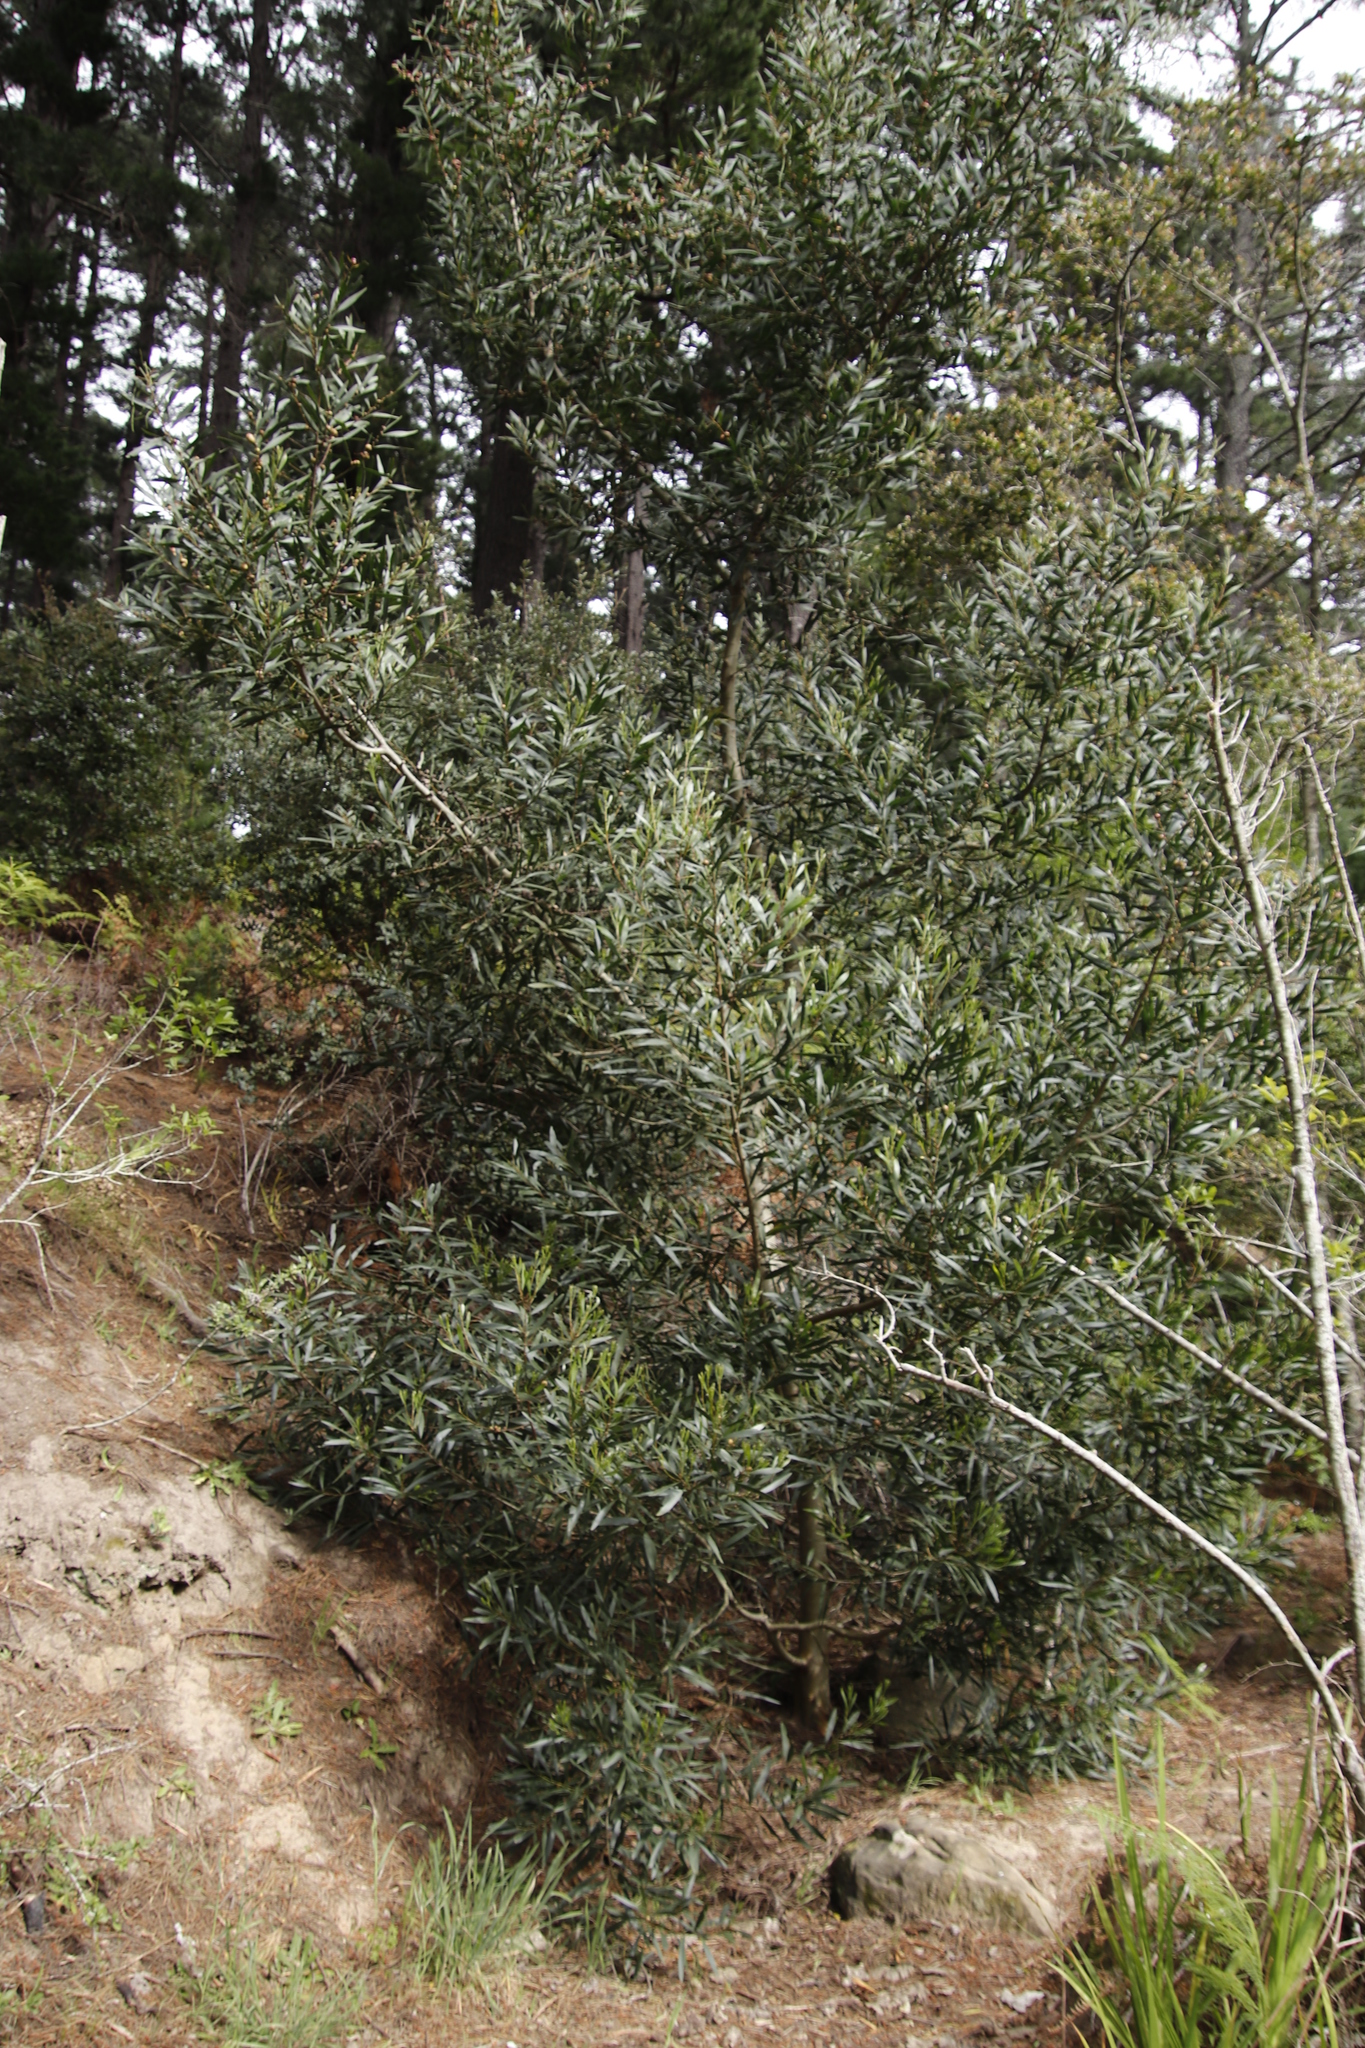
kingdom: Plantae
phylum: Tracheophyta
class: Magnoliopsida
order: Fabales
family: Fabaceae
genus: Acacia
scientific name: Acacia longifolia
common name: Sydney golden wattle
